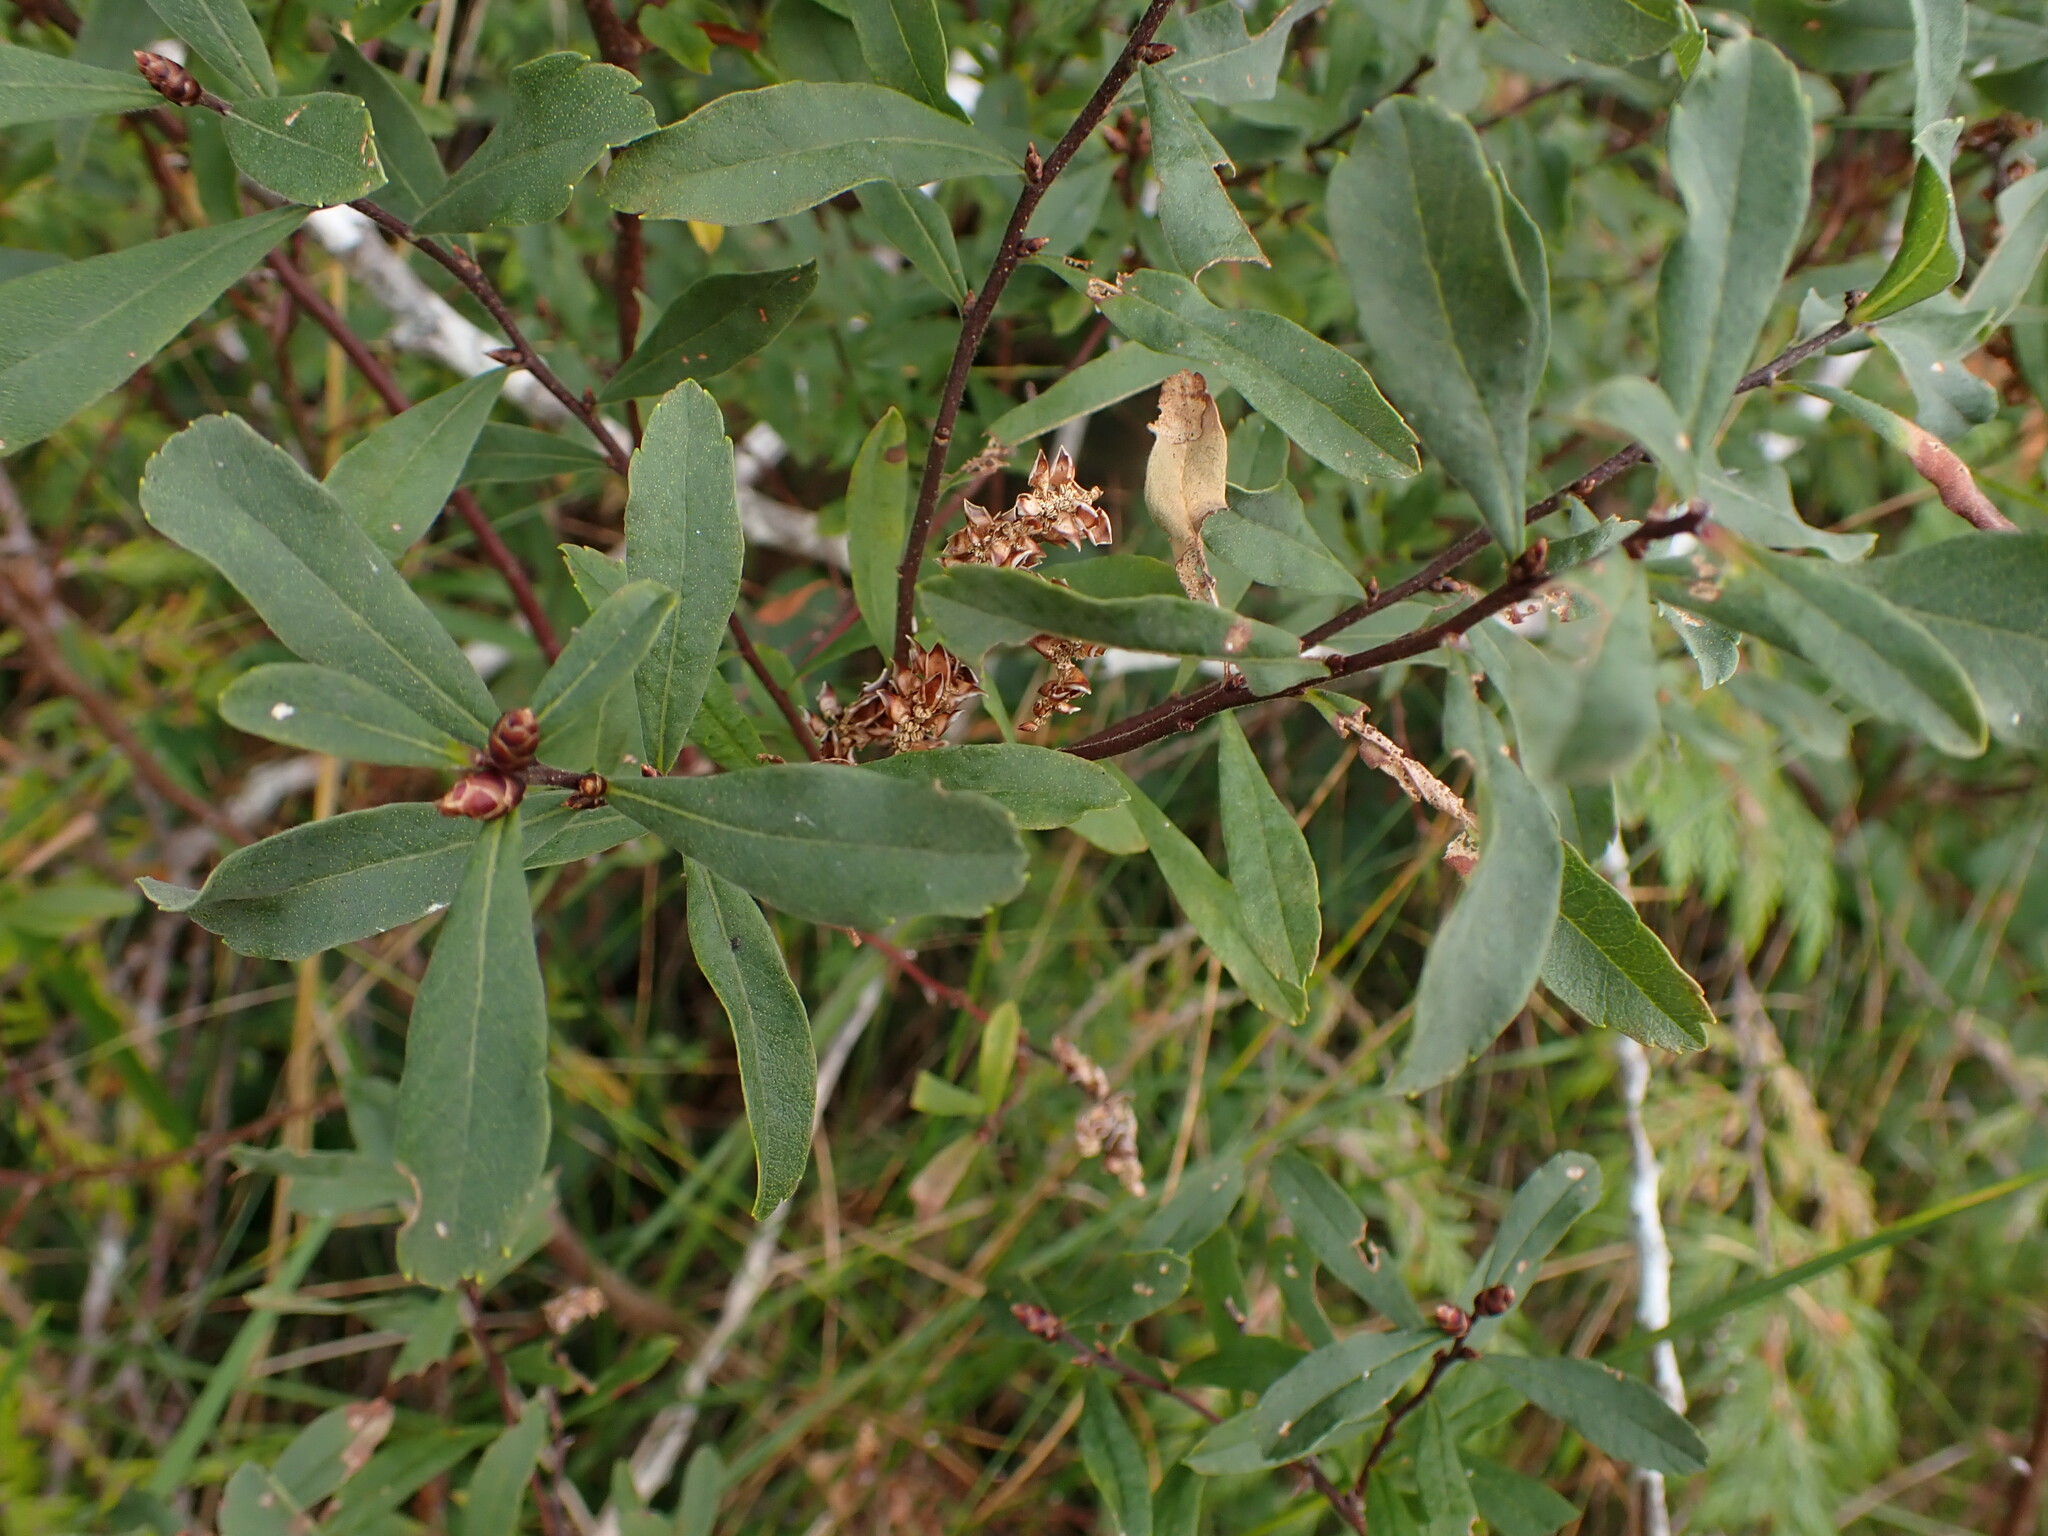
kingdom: Plantae
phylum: Tracheophyta
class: Magnoliopsida
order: Fagales
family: Myricaceae
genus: Myrica
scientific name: Myrica gale
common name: Sweet gale
